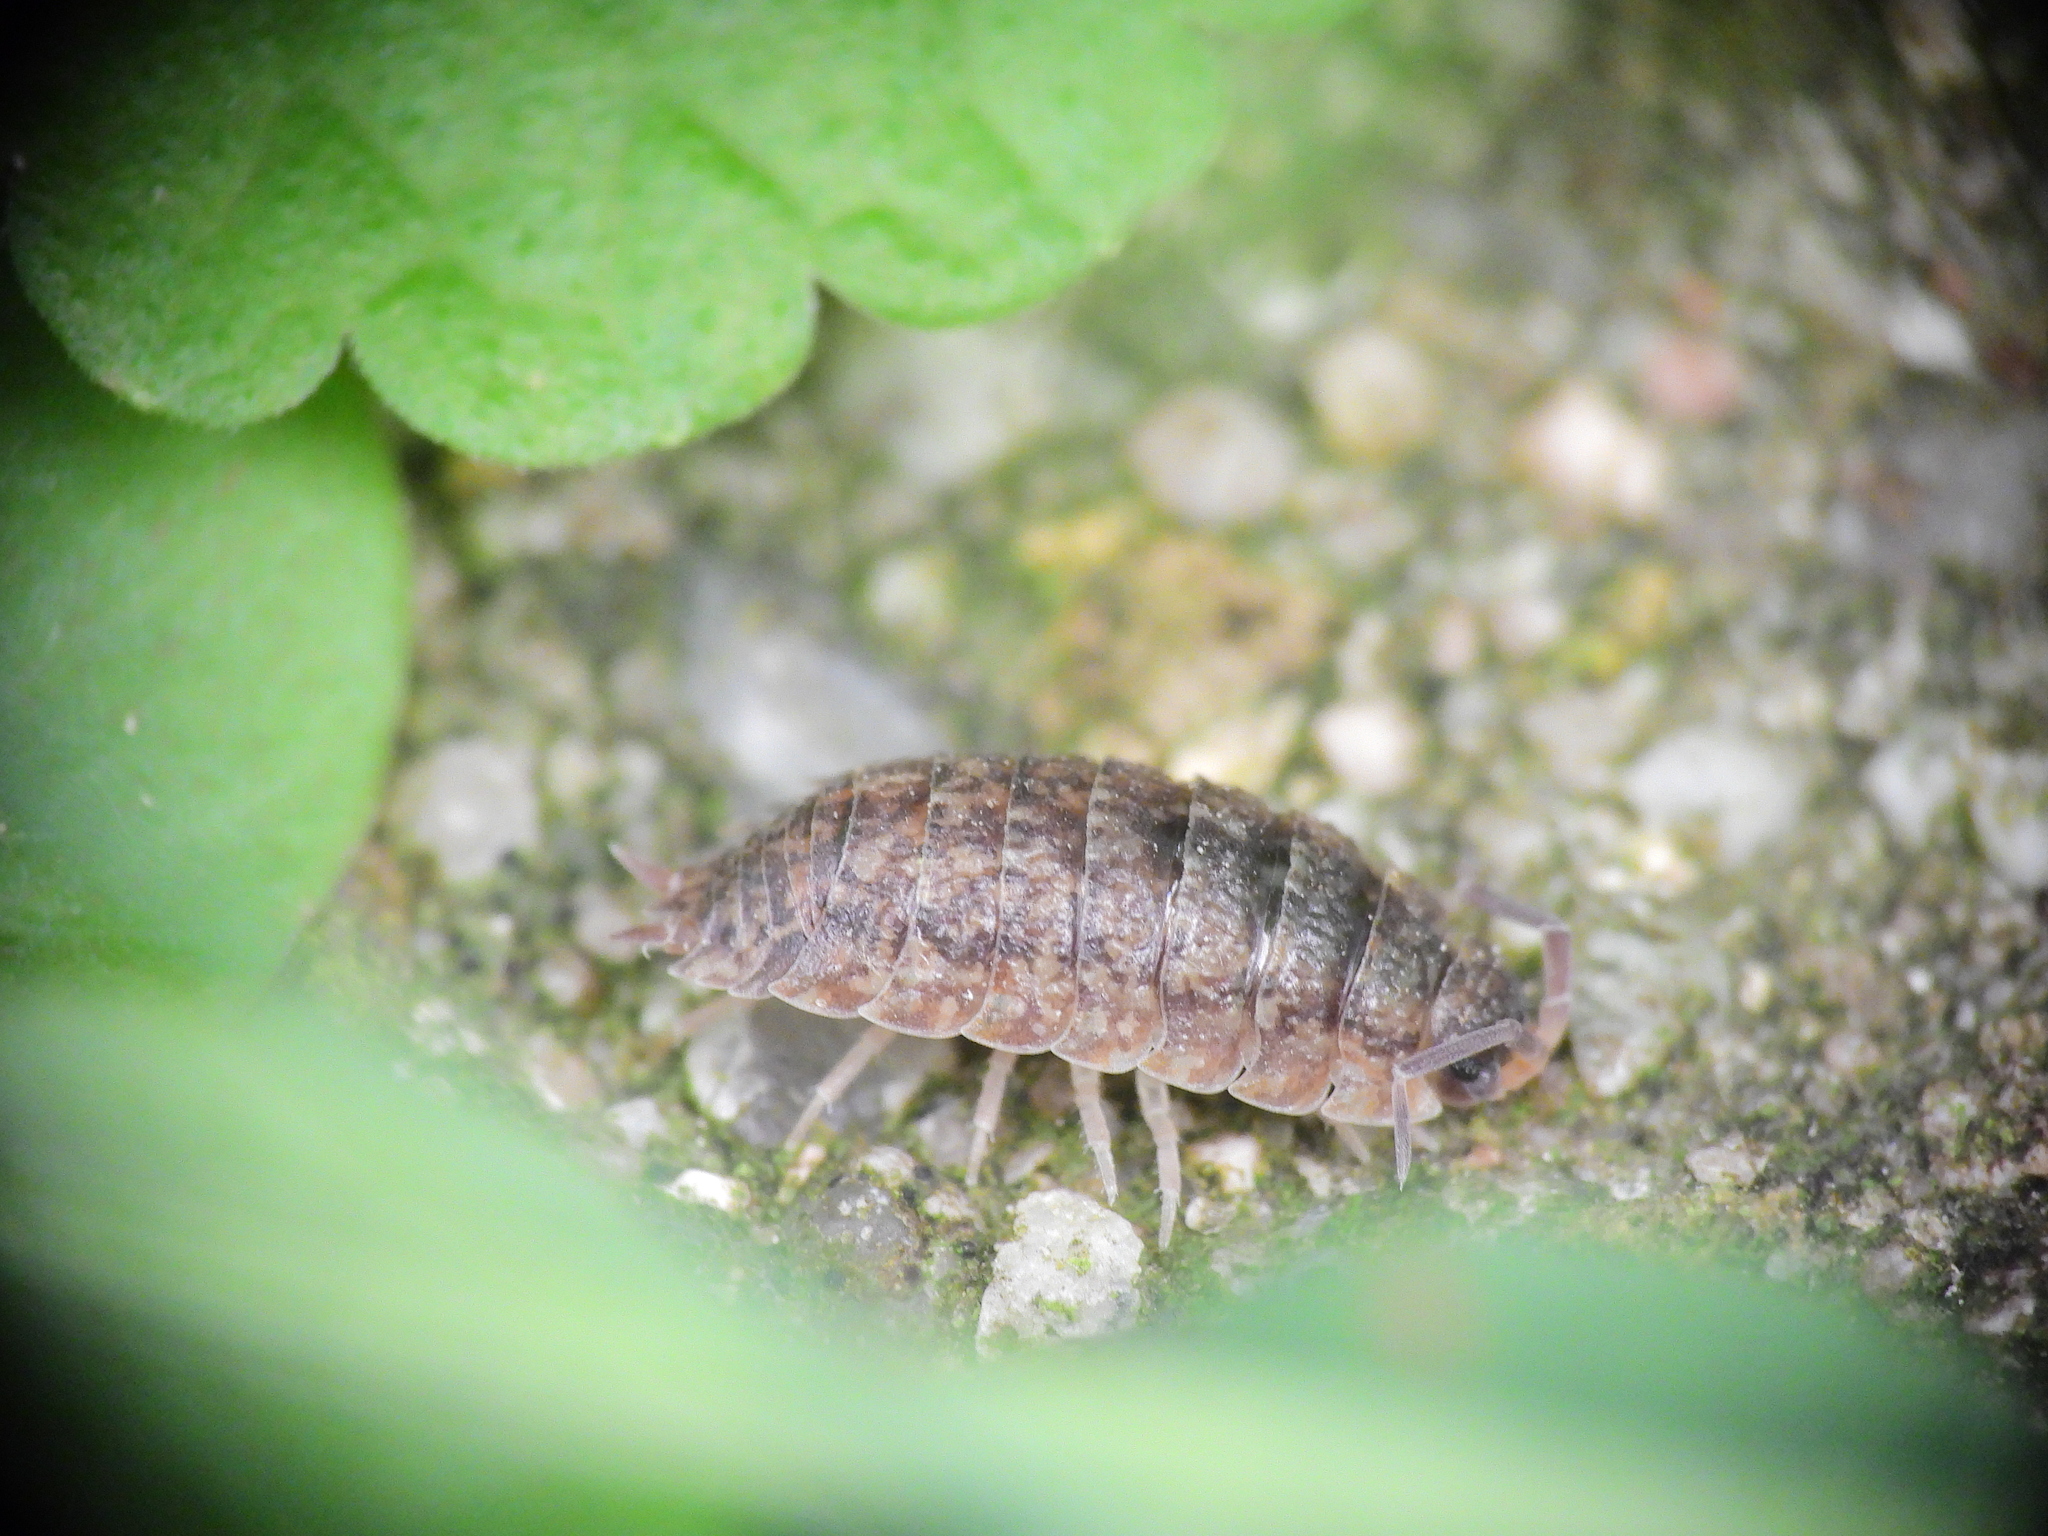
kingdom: Animalia
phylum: Arthropoda
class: Malacostraca
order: Isopoda
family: Porcellionidae
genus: Porcellio
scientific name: Porcellio scaber
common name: Common rough woodlouse
